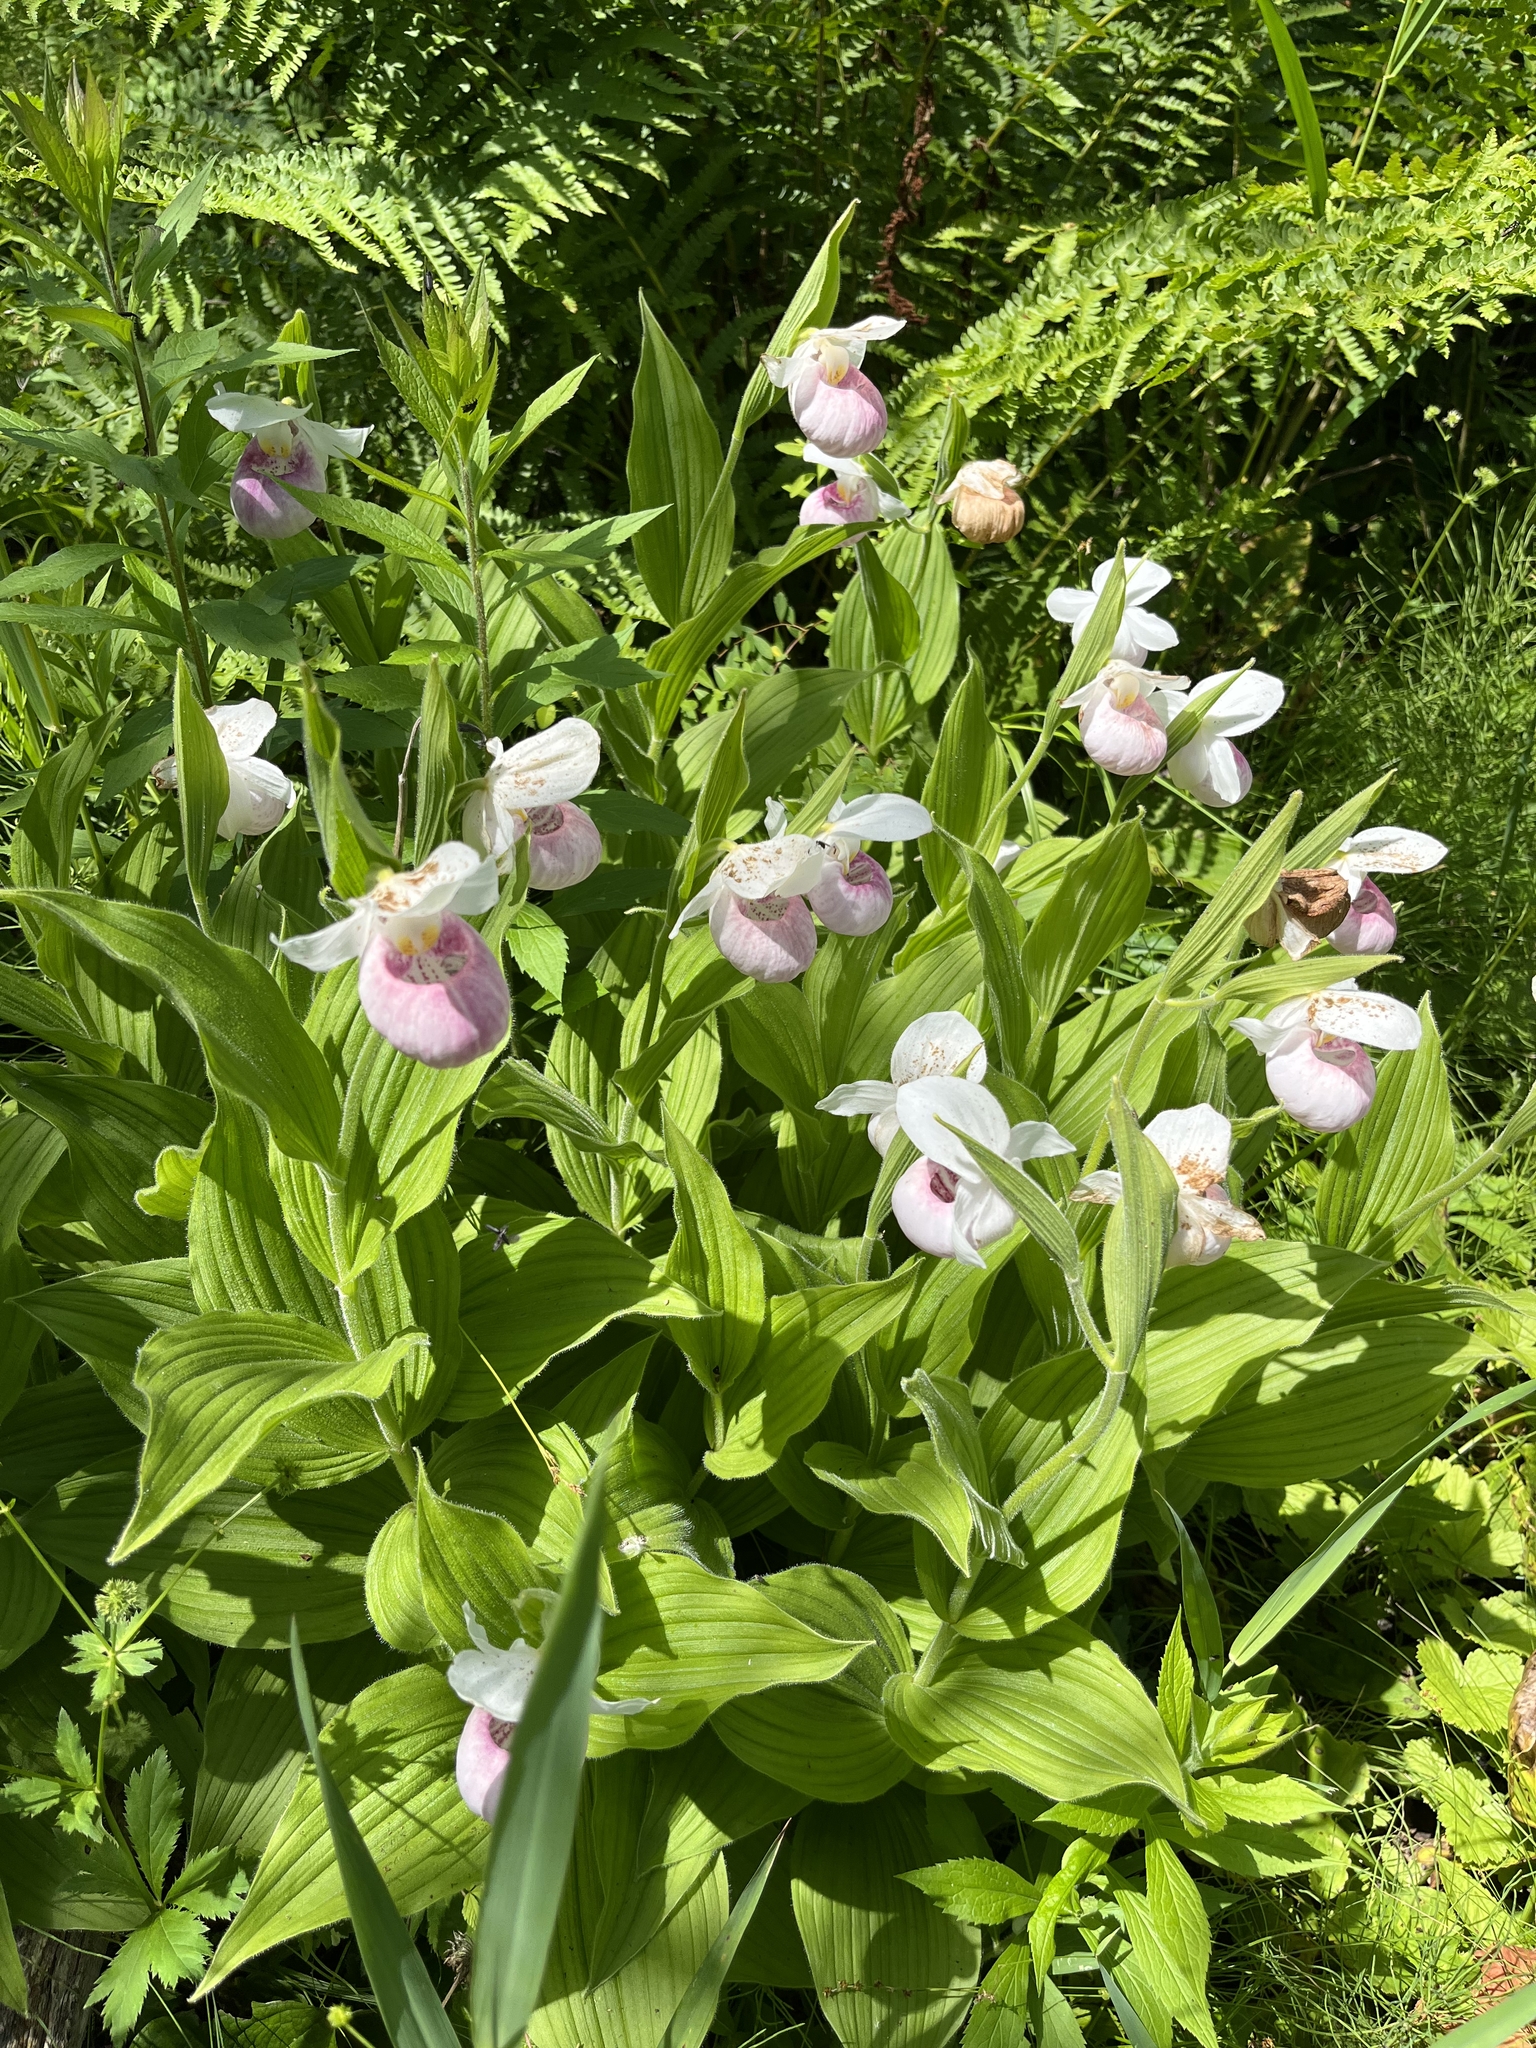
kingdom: Plantae
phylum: Tracheophyta
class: Liliopsida
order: Asparagales
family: Orchidaceae
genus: Cypripedium
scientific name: Cypripedium reginae
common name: Queen lady's-slipper
